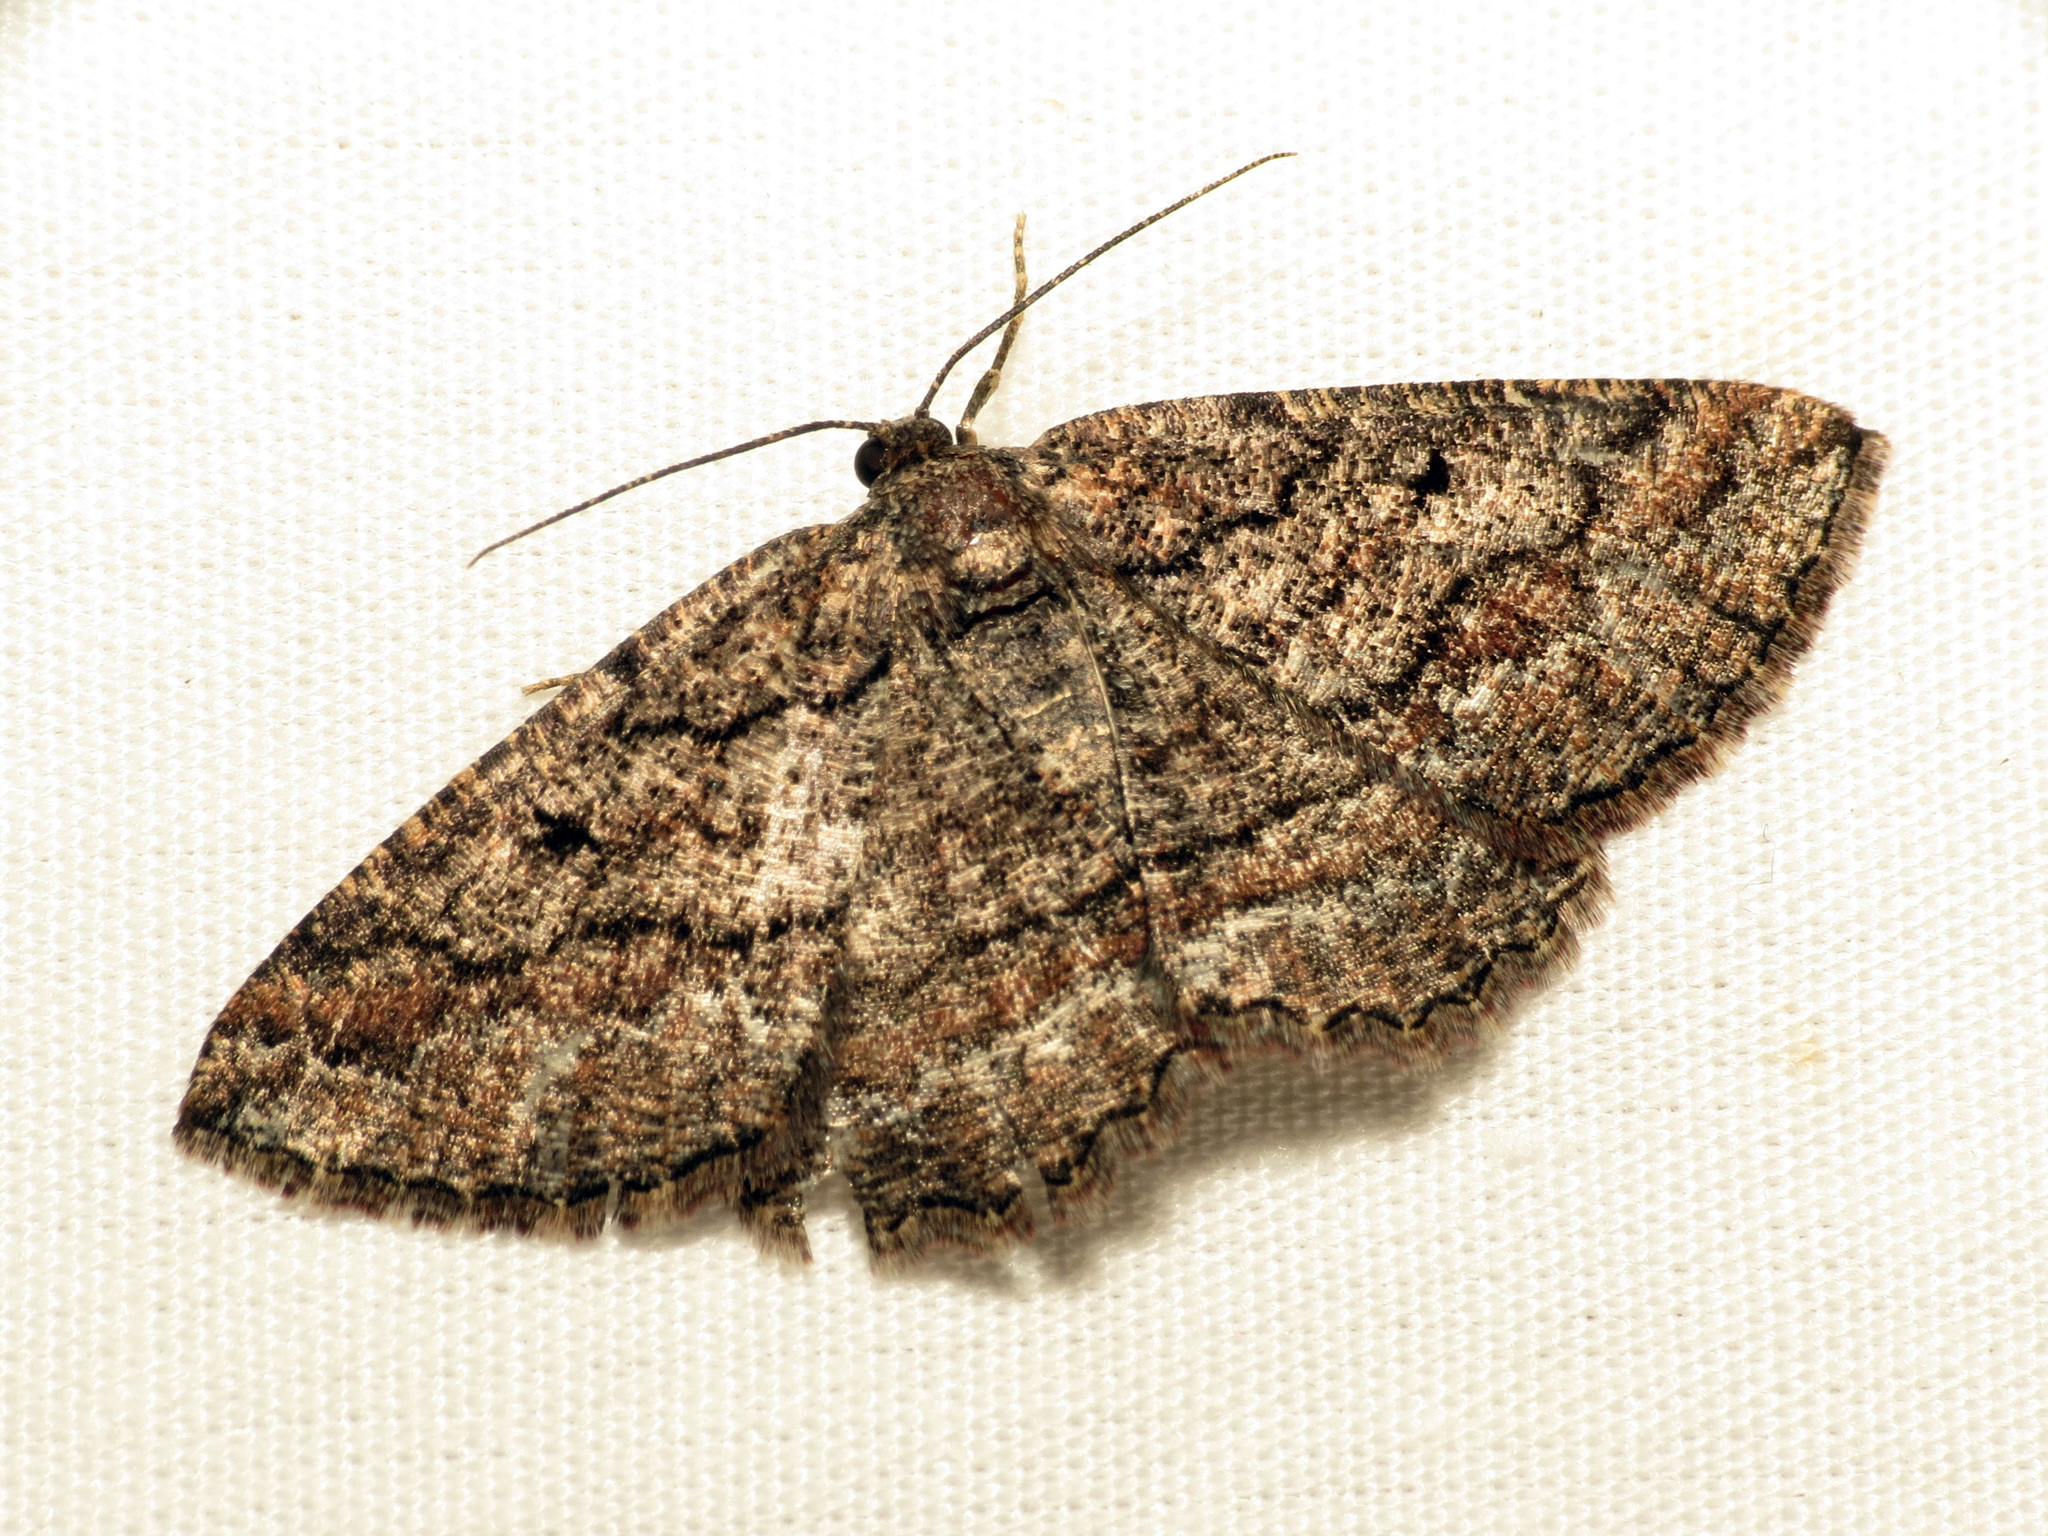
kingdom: Animalia
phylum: Arthropoda
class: Insecta
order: Lepidoptera
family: Geometridae
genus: Pterospoda
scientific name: Pterospoda nigrescens
